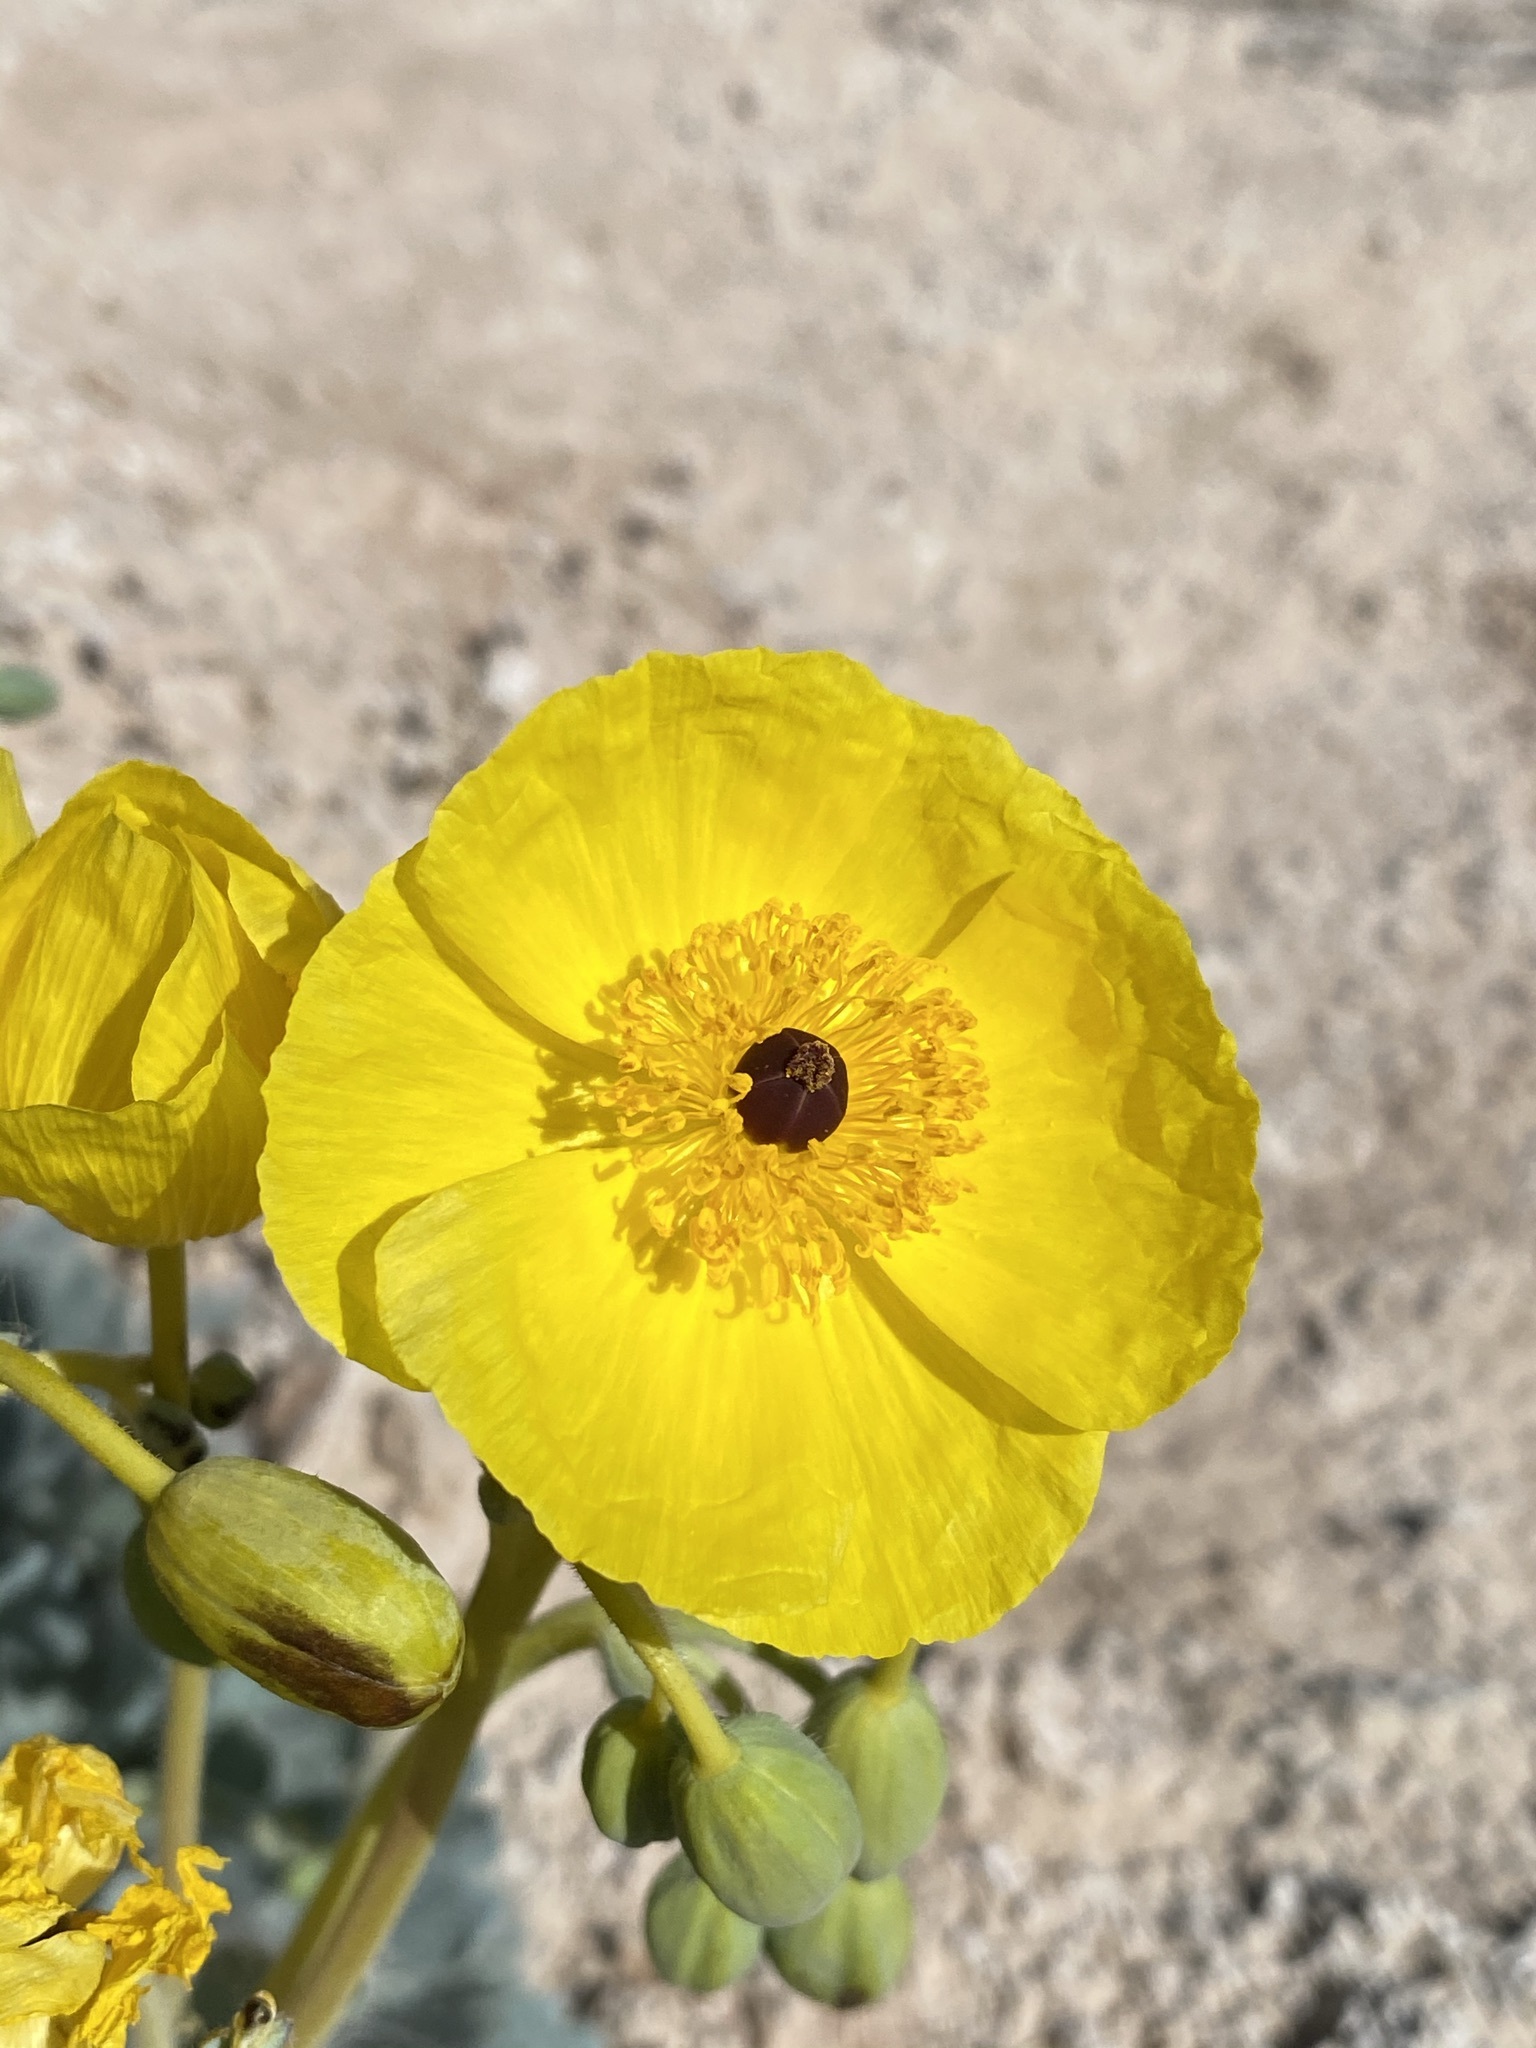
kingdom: Plantae
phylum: Tracheophyta
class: Magnoliopsida
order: Ranunculales
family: Papaveraceae
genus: Arctomecon
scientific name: Arctomecon californicum
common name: Golden bearclaw-poppy
